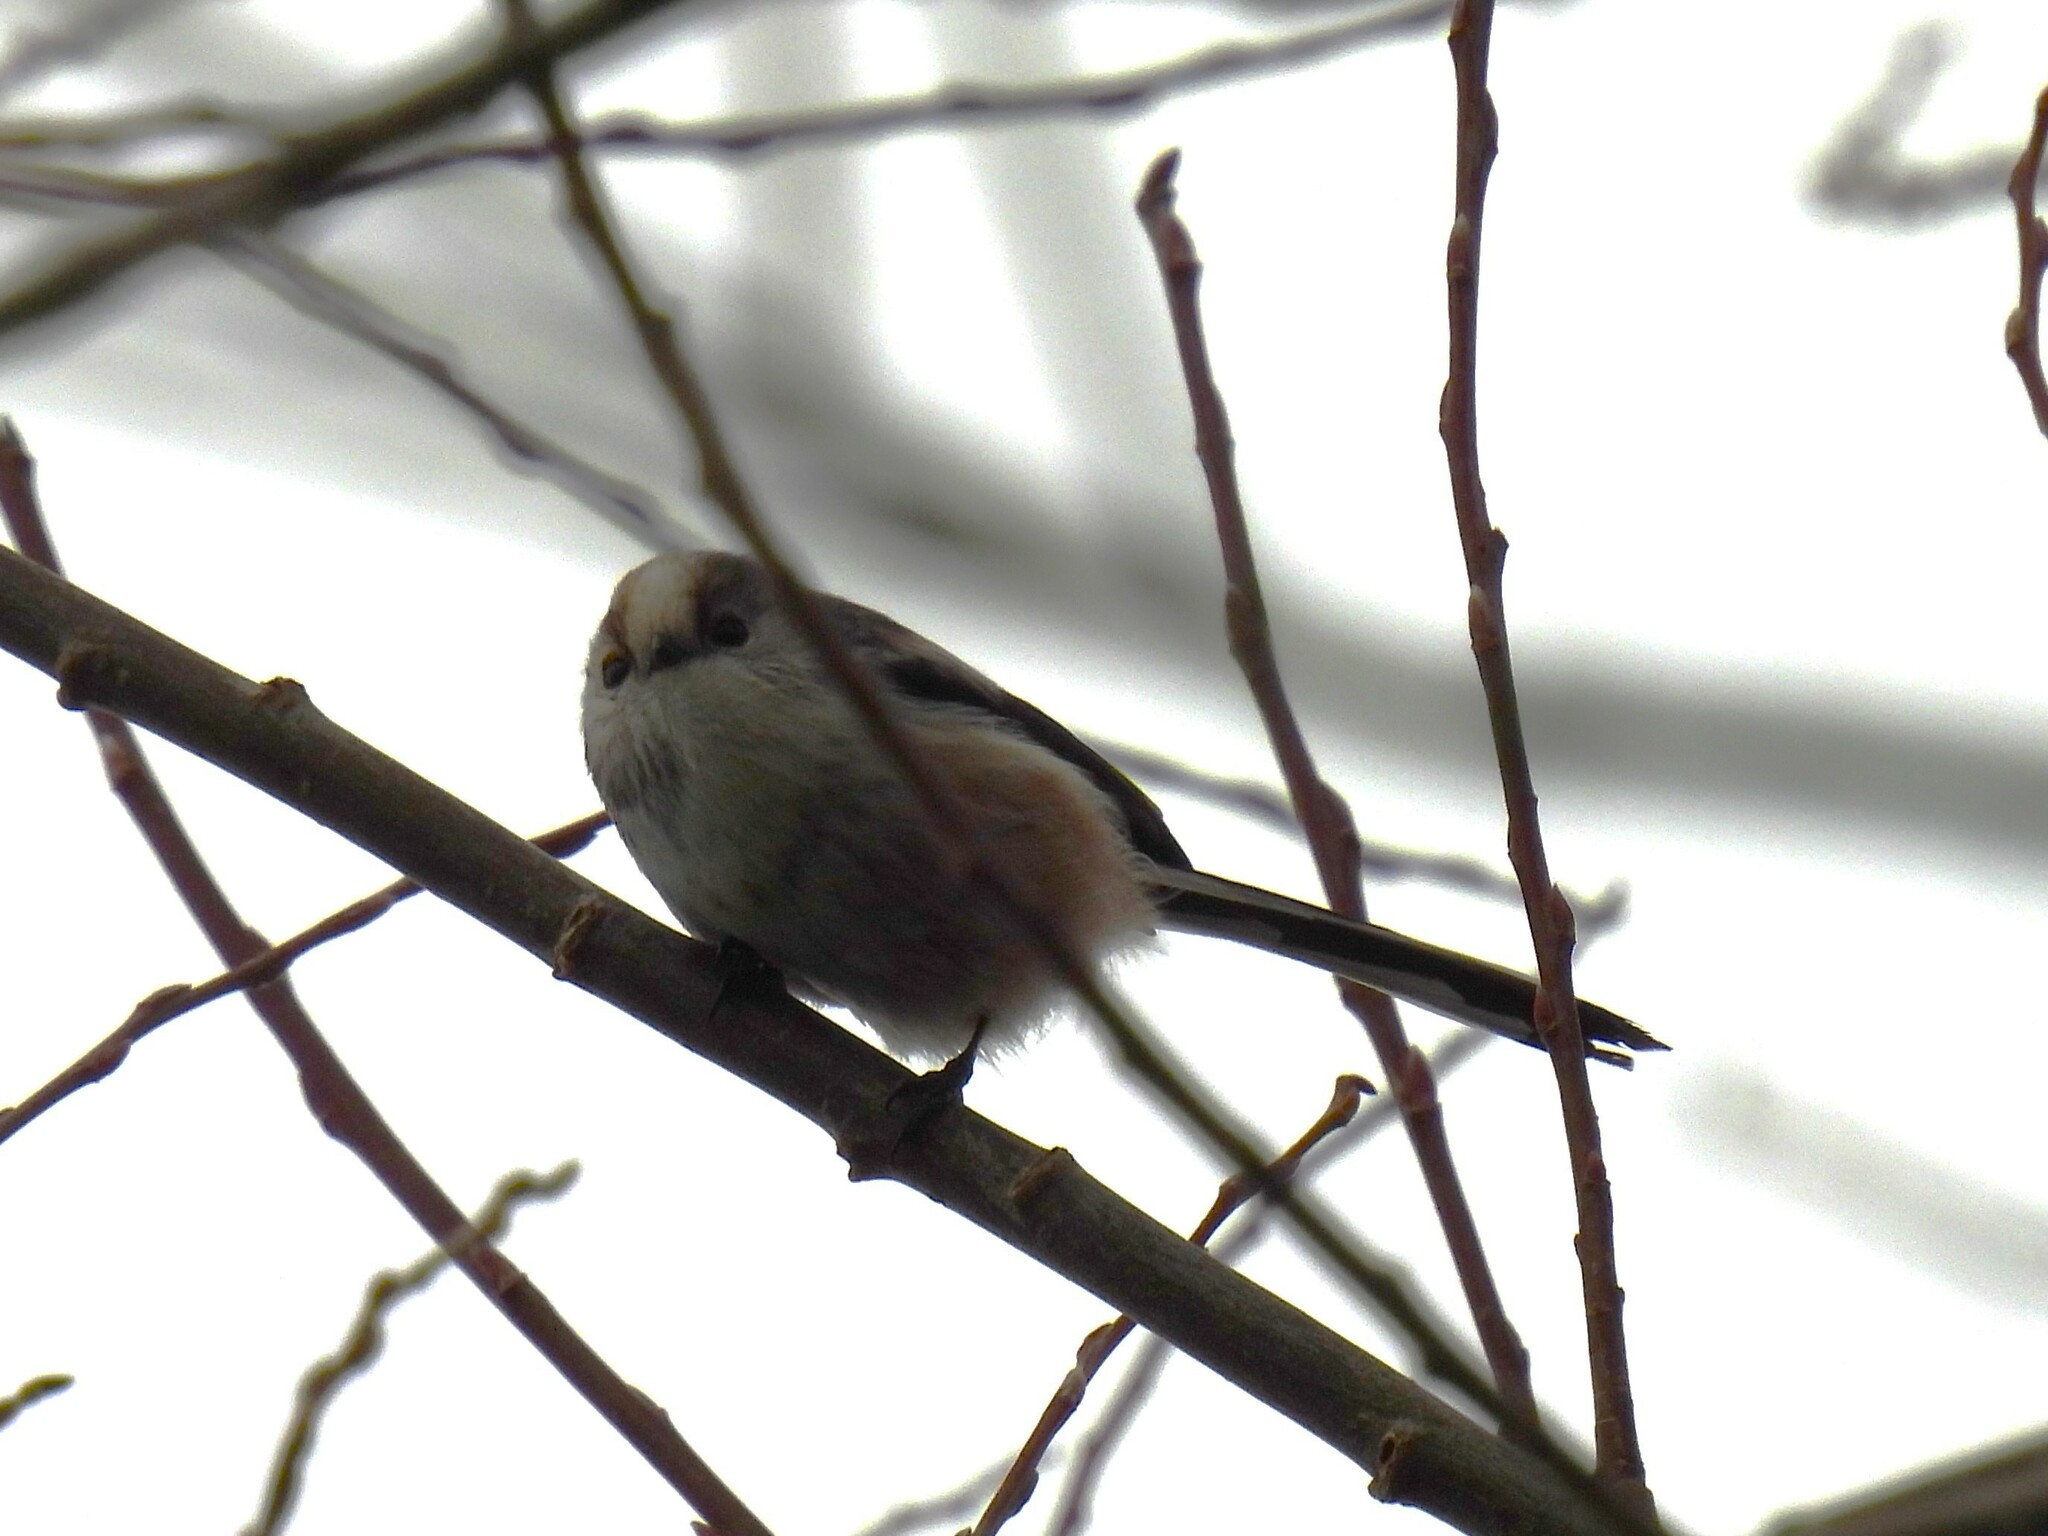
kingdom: Animalia
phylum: Chordata
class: Aves
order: Passeriformes
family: Aegithalidae
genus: Aegithalos
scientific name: Aegithalos caudatus
